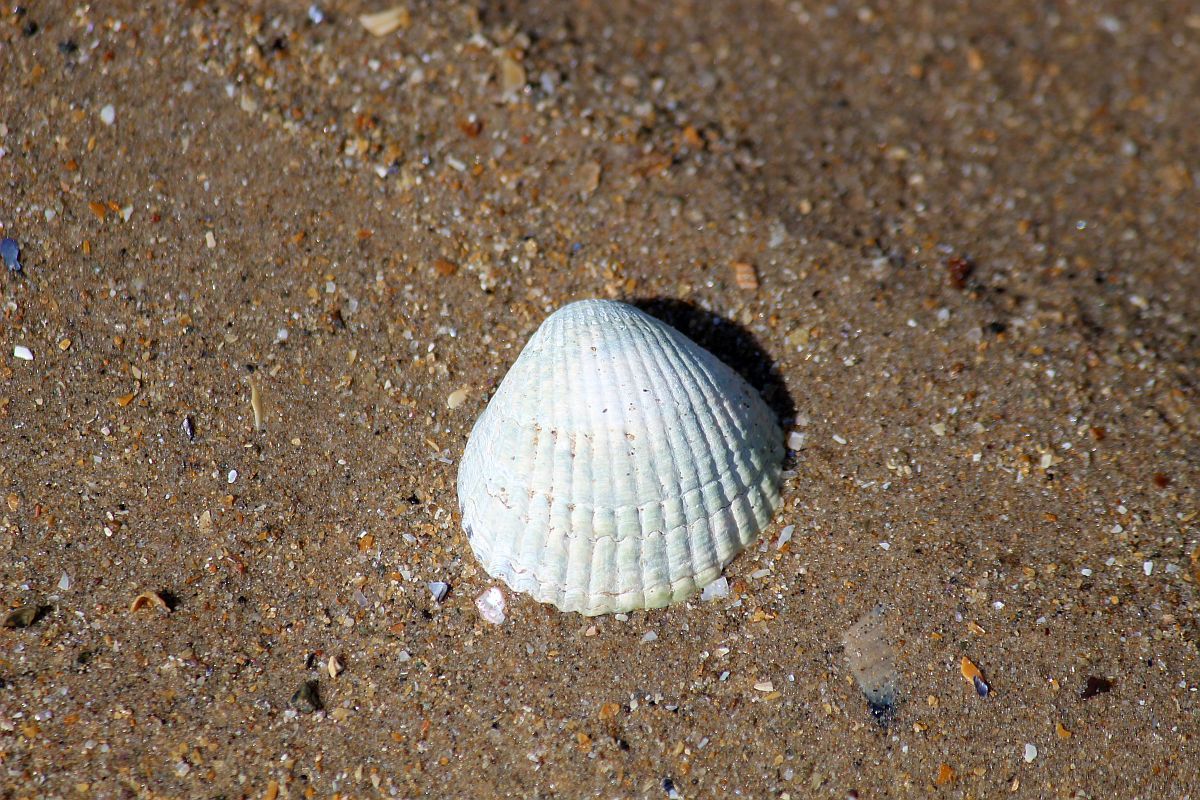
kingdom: Animalia
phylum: Mollusca
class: Bivalvia
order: Cardiida
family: Cardiidae
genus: Cerastoderma
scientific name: Cerastoderma edule
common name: Common cockle
